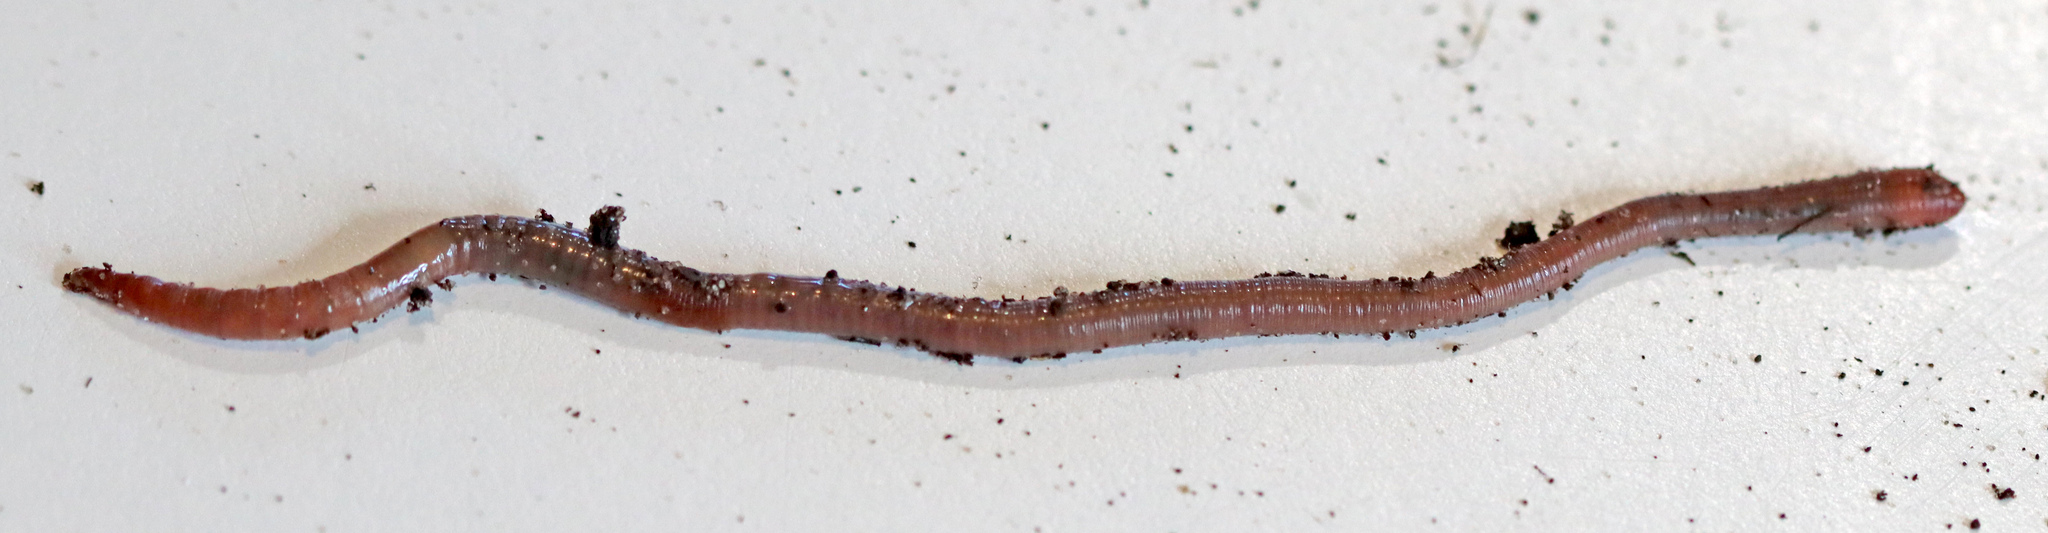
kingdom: Animalia
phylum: Annelida
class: Clitellata
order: Crassiclitellata
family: Lumbricidae
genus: Lumbricus
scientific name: Lumbricus terrestris
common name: Common earthworm
